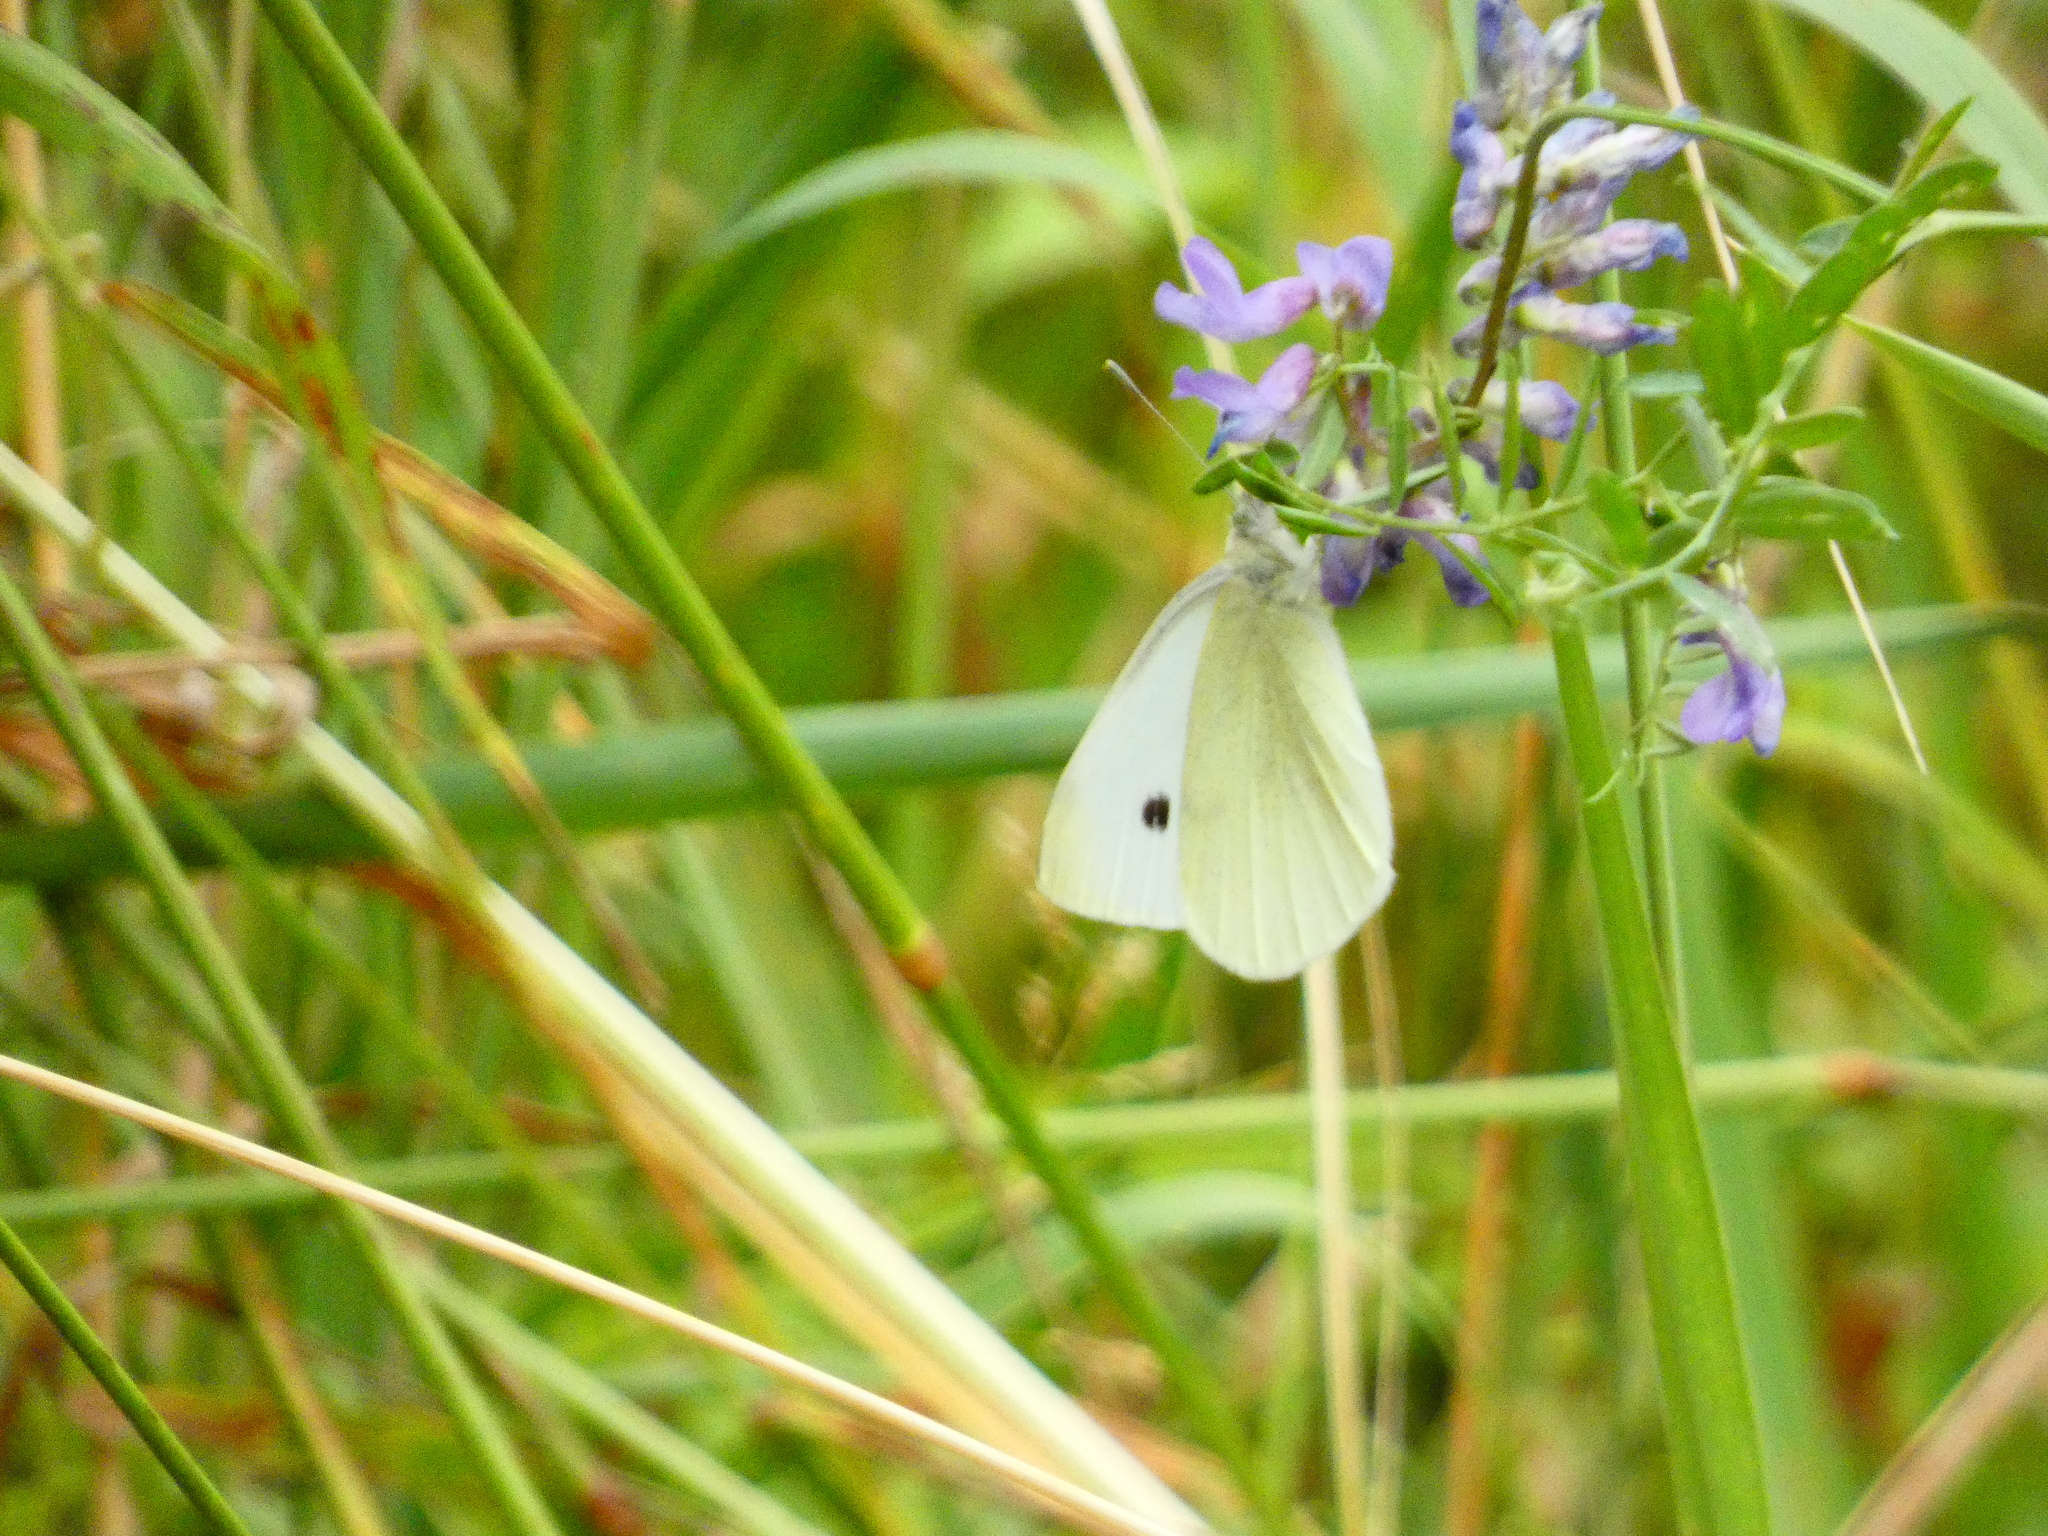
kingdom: Animalia
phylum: Arthropoda
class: Insecta
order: Lepidoptera
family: Pieridae
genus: Pieris
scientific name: Pieris rapae
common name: Small white
